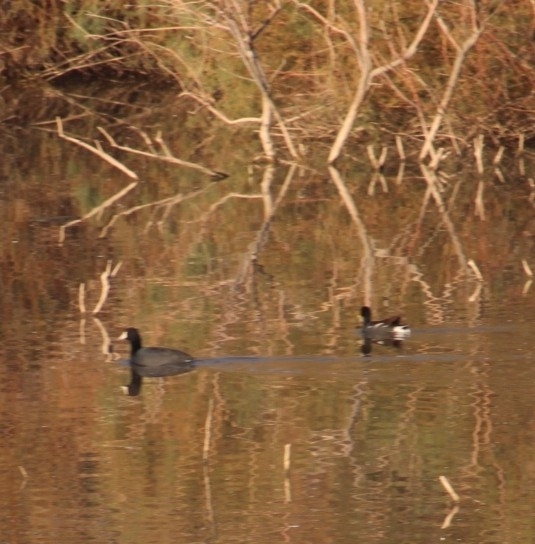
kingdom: Animalia
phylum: Chordata
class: Aves
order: Gruiformes
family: Rallidae
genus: Fulica
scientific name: Fulica americana
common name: American coot
